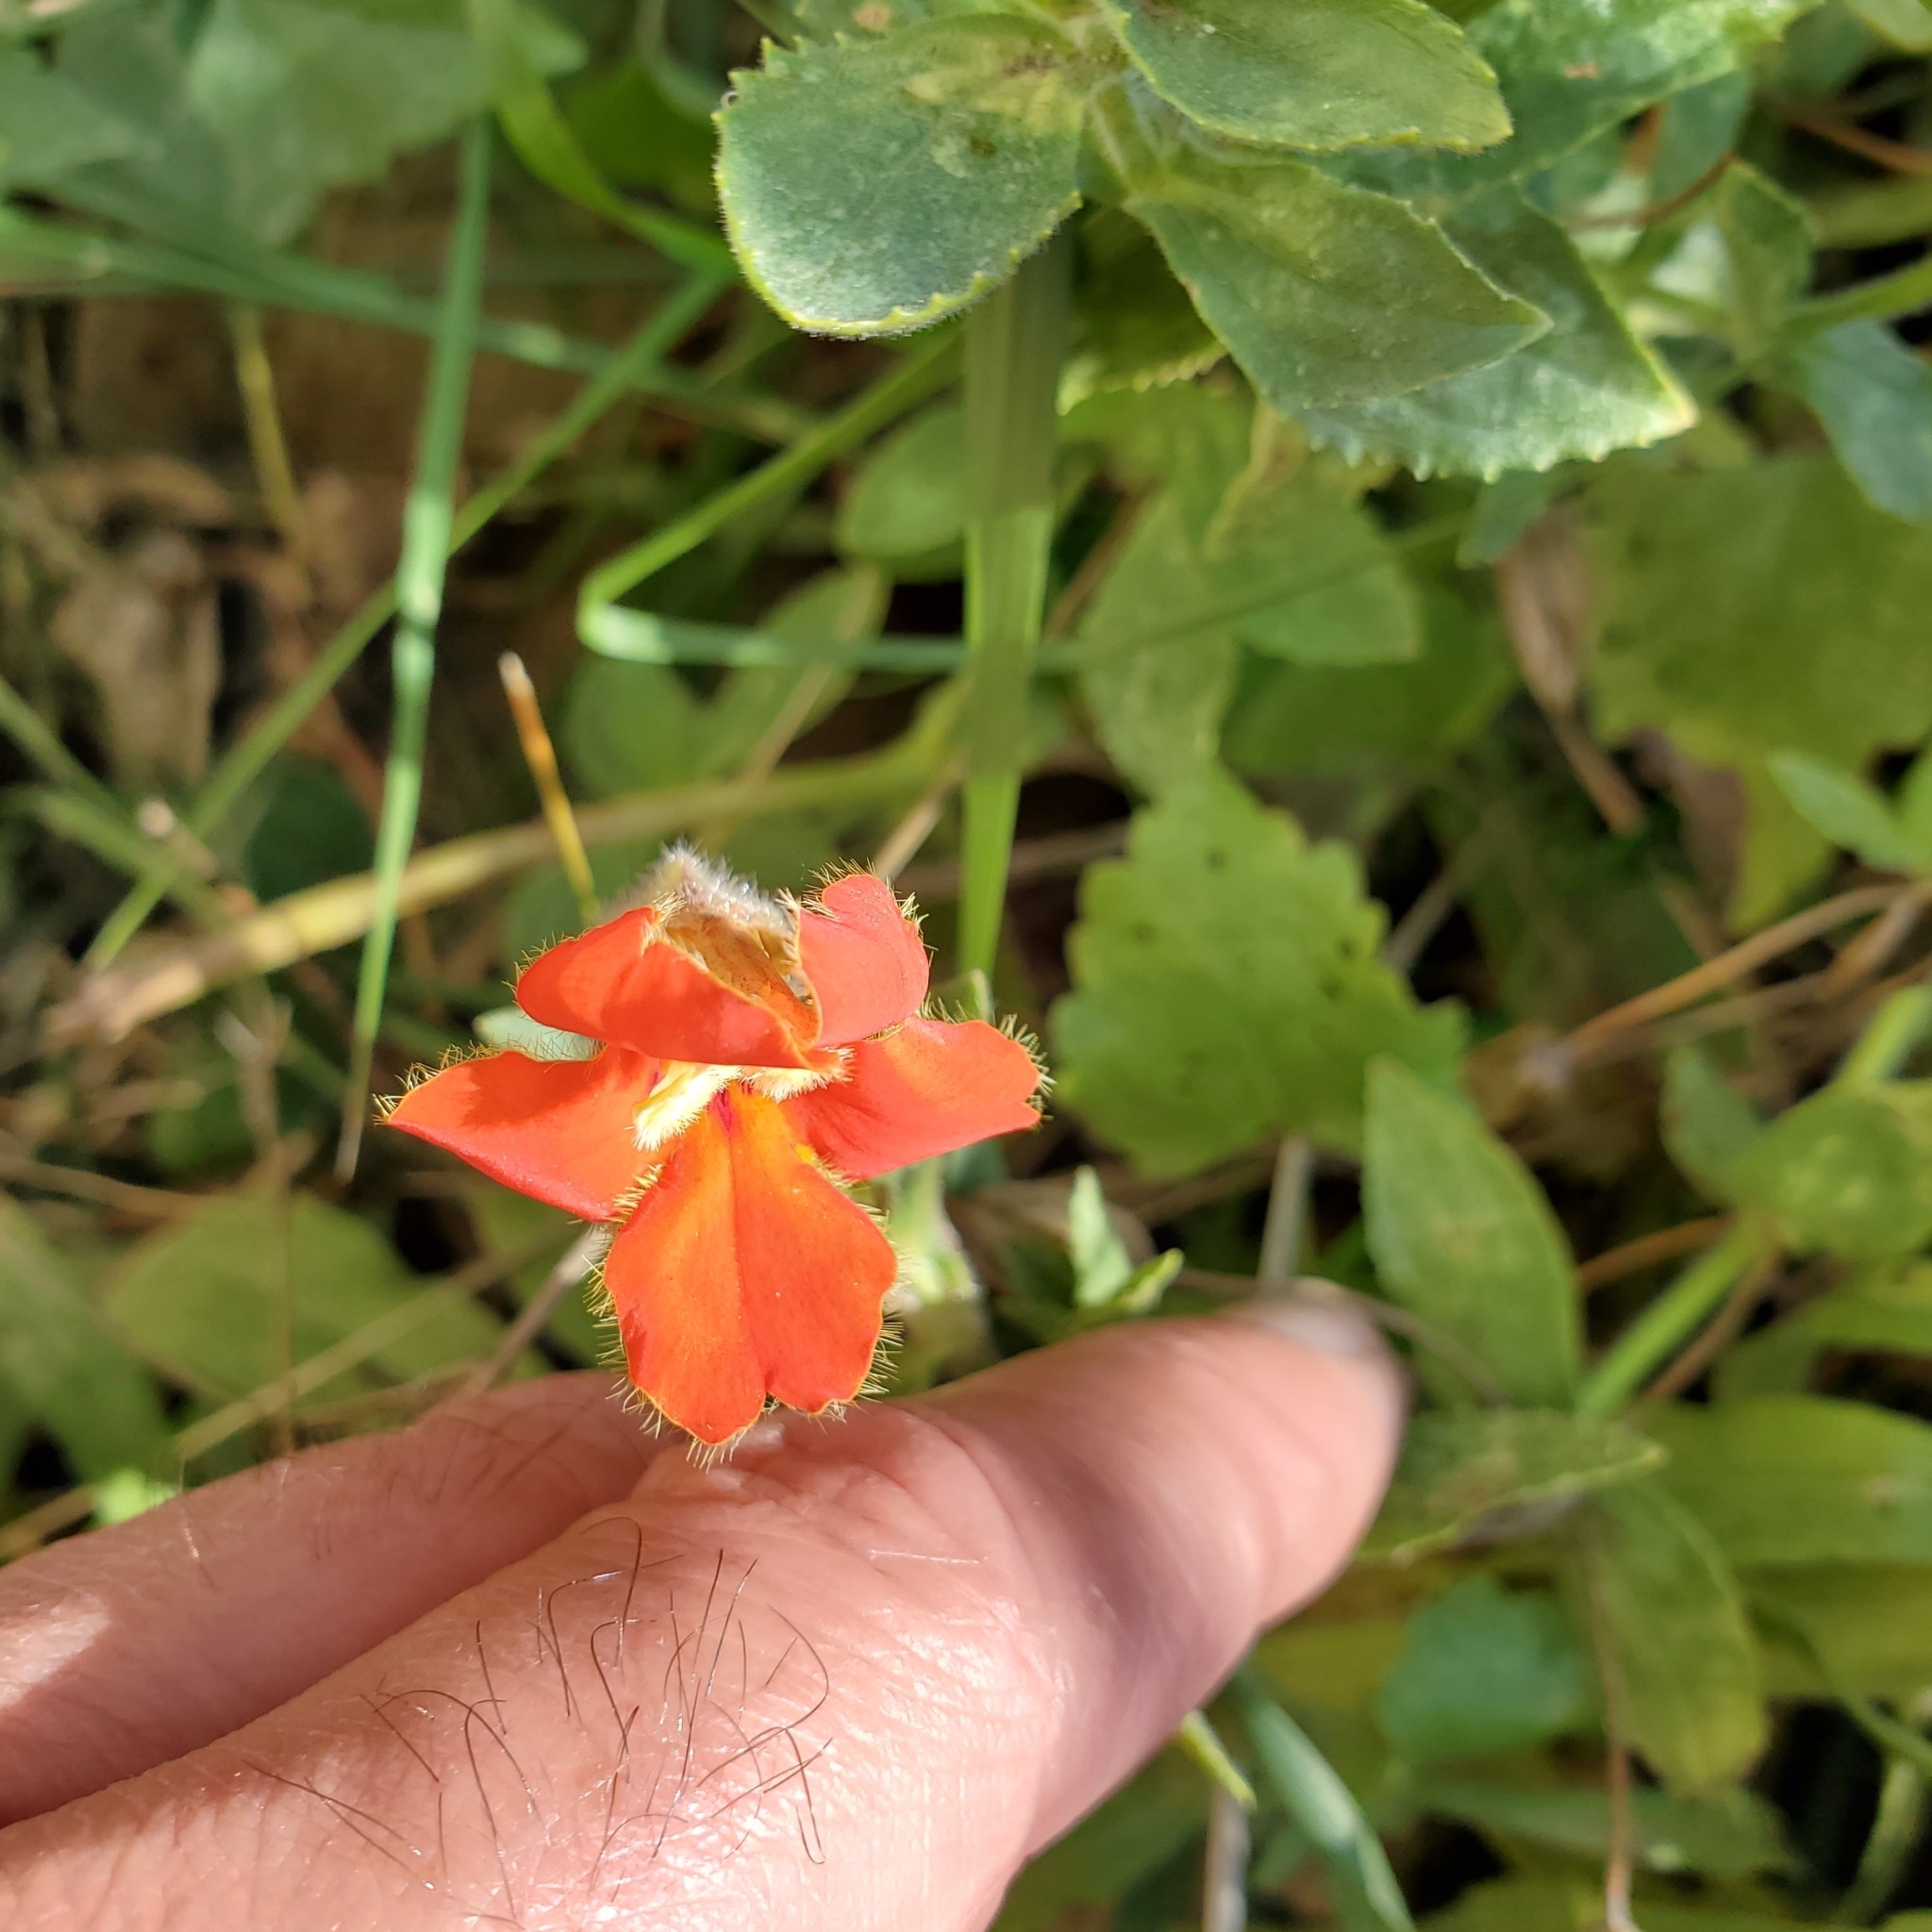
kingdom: Plantae
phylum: Tracheophyta
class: Magnoliopsida
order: Lamiales
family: Phrymaceae
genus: Erythranthe
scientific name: Erythranthe cardinalis
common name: Scarlet monkey-flower
